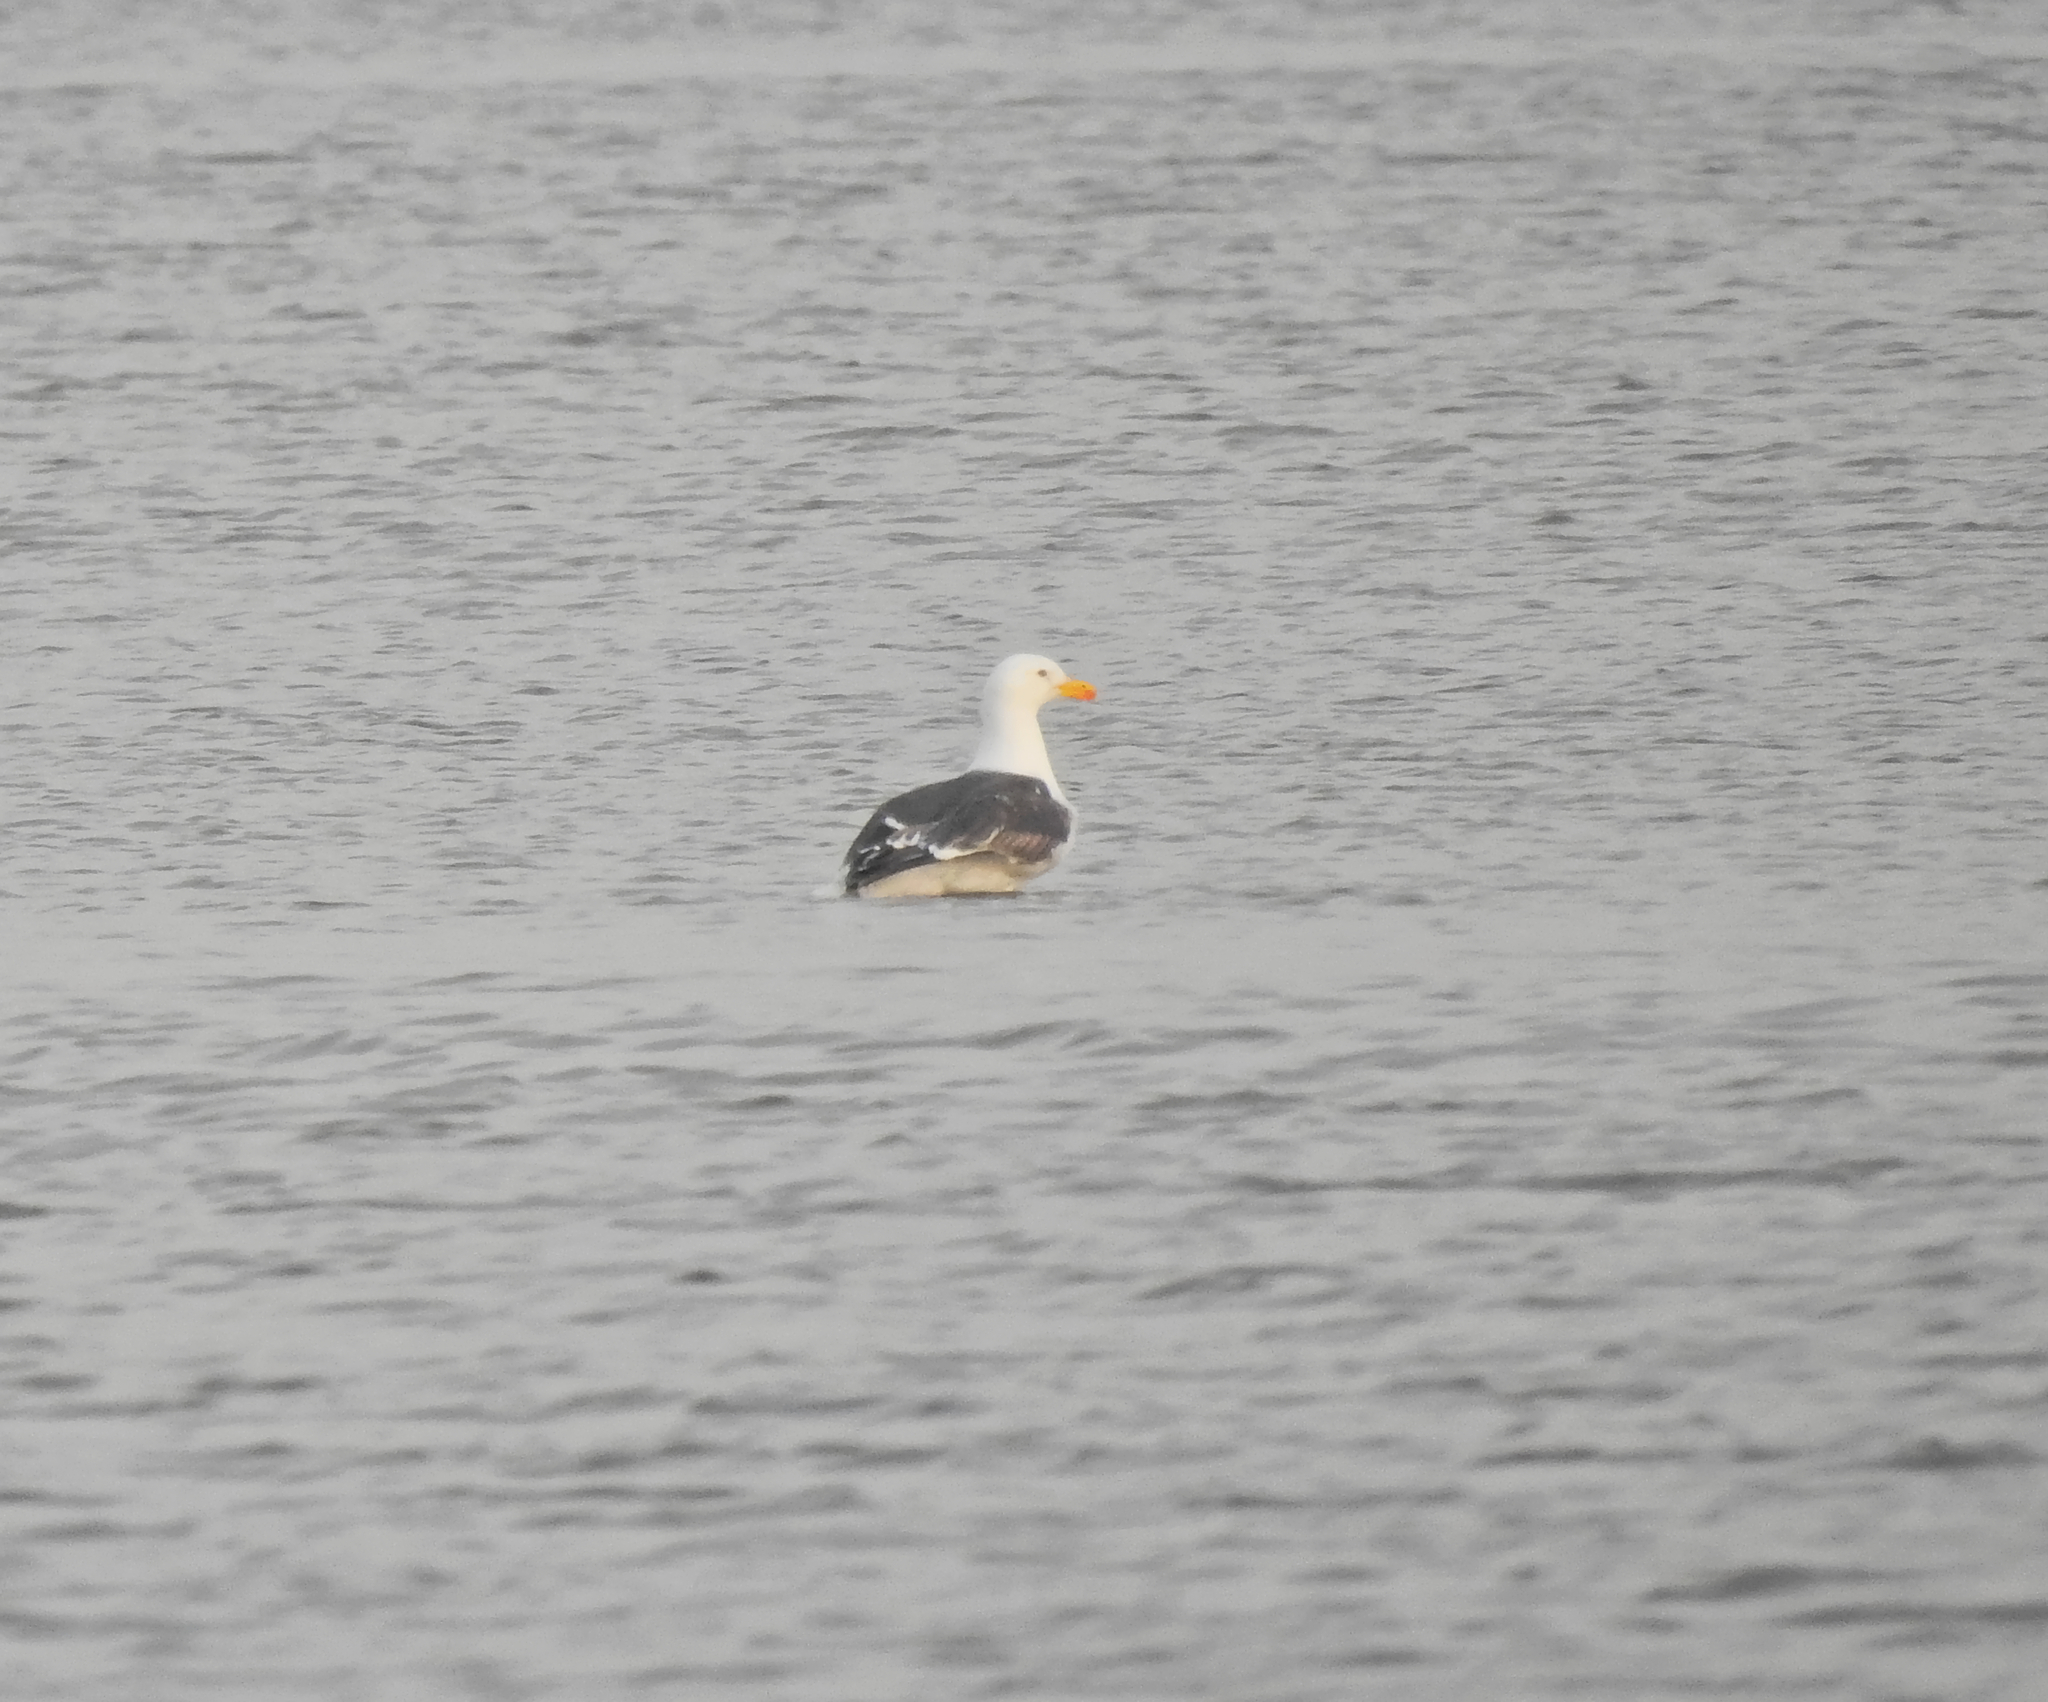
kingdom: Animalia
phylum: Chordata
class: Aves
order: Charadriiformes
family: Laridae
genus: Larus
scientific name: Larus marinus
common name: Great black-backed gull
